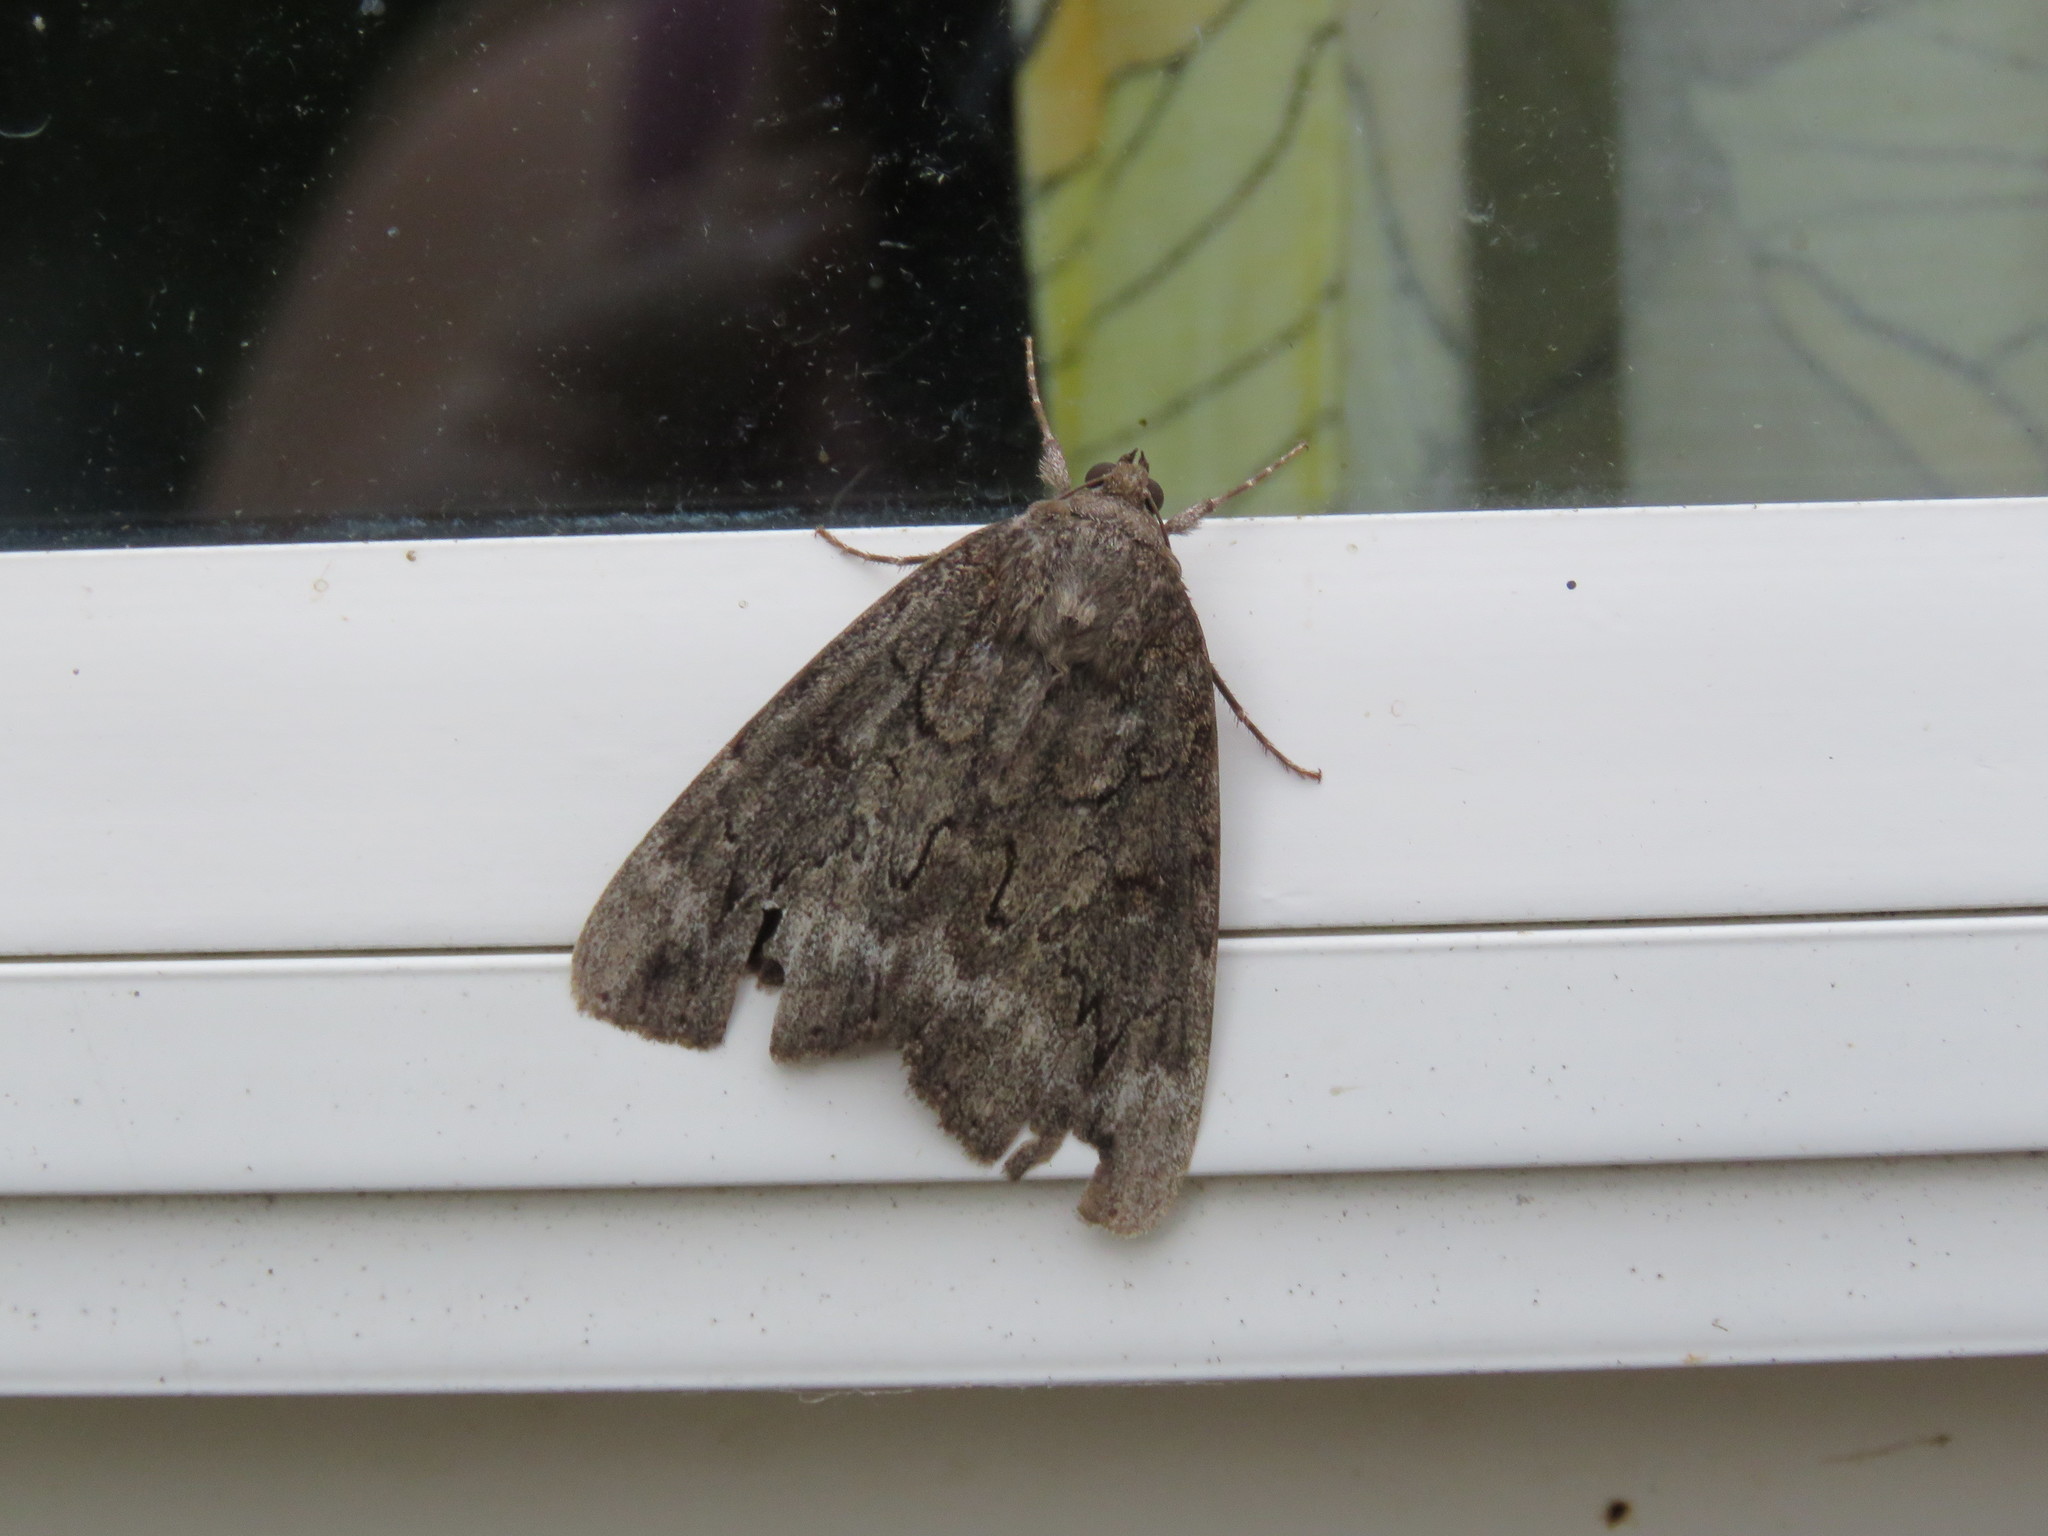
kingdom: Animalia
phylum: Arthropoda
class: Insecta
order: Lepidoptera
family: Erebidae
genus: Catocala
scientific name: Catocala residua
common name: Residua underwing
